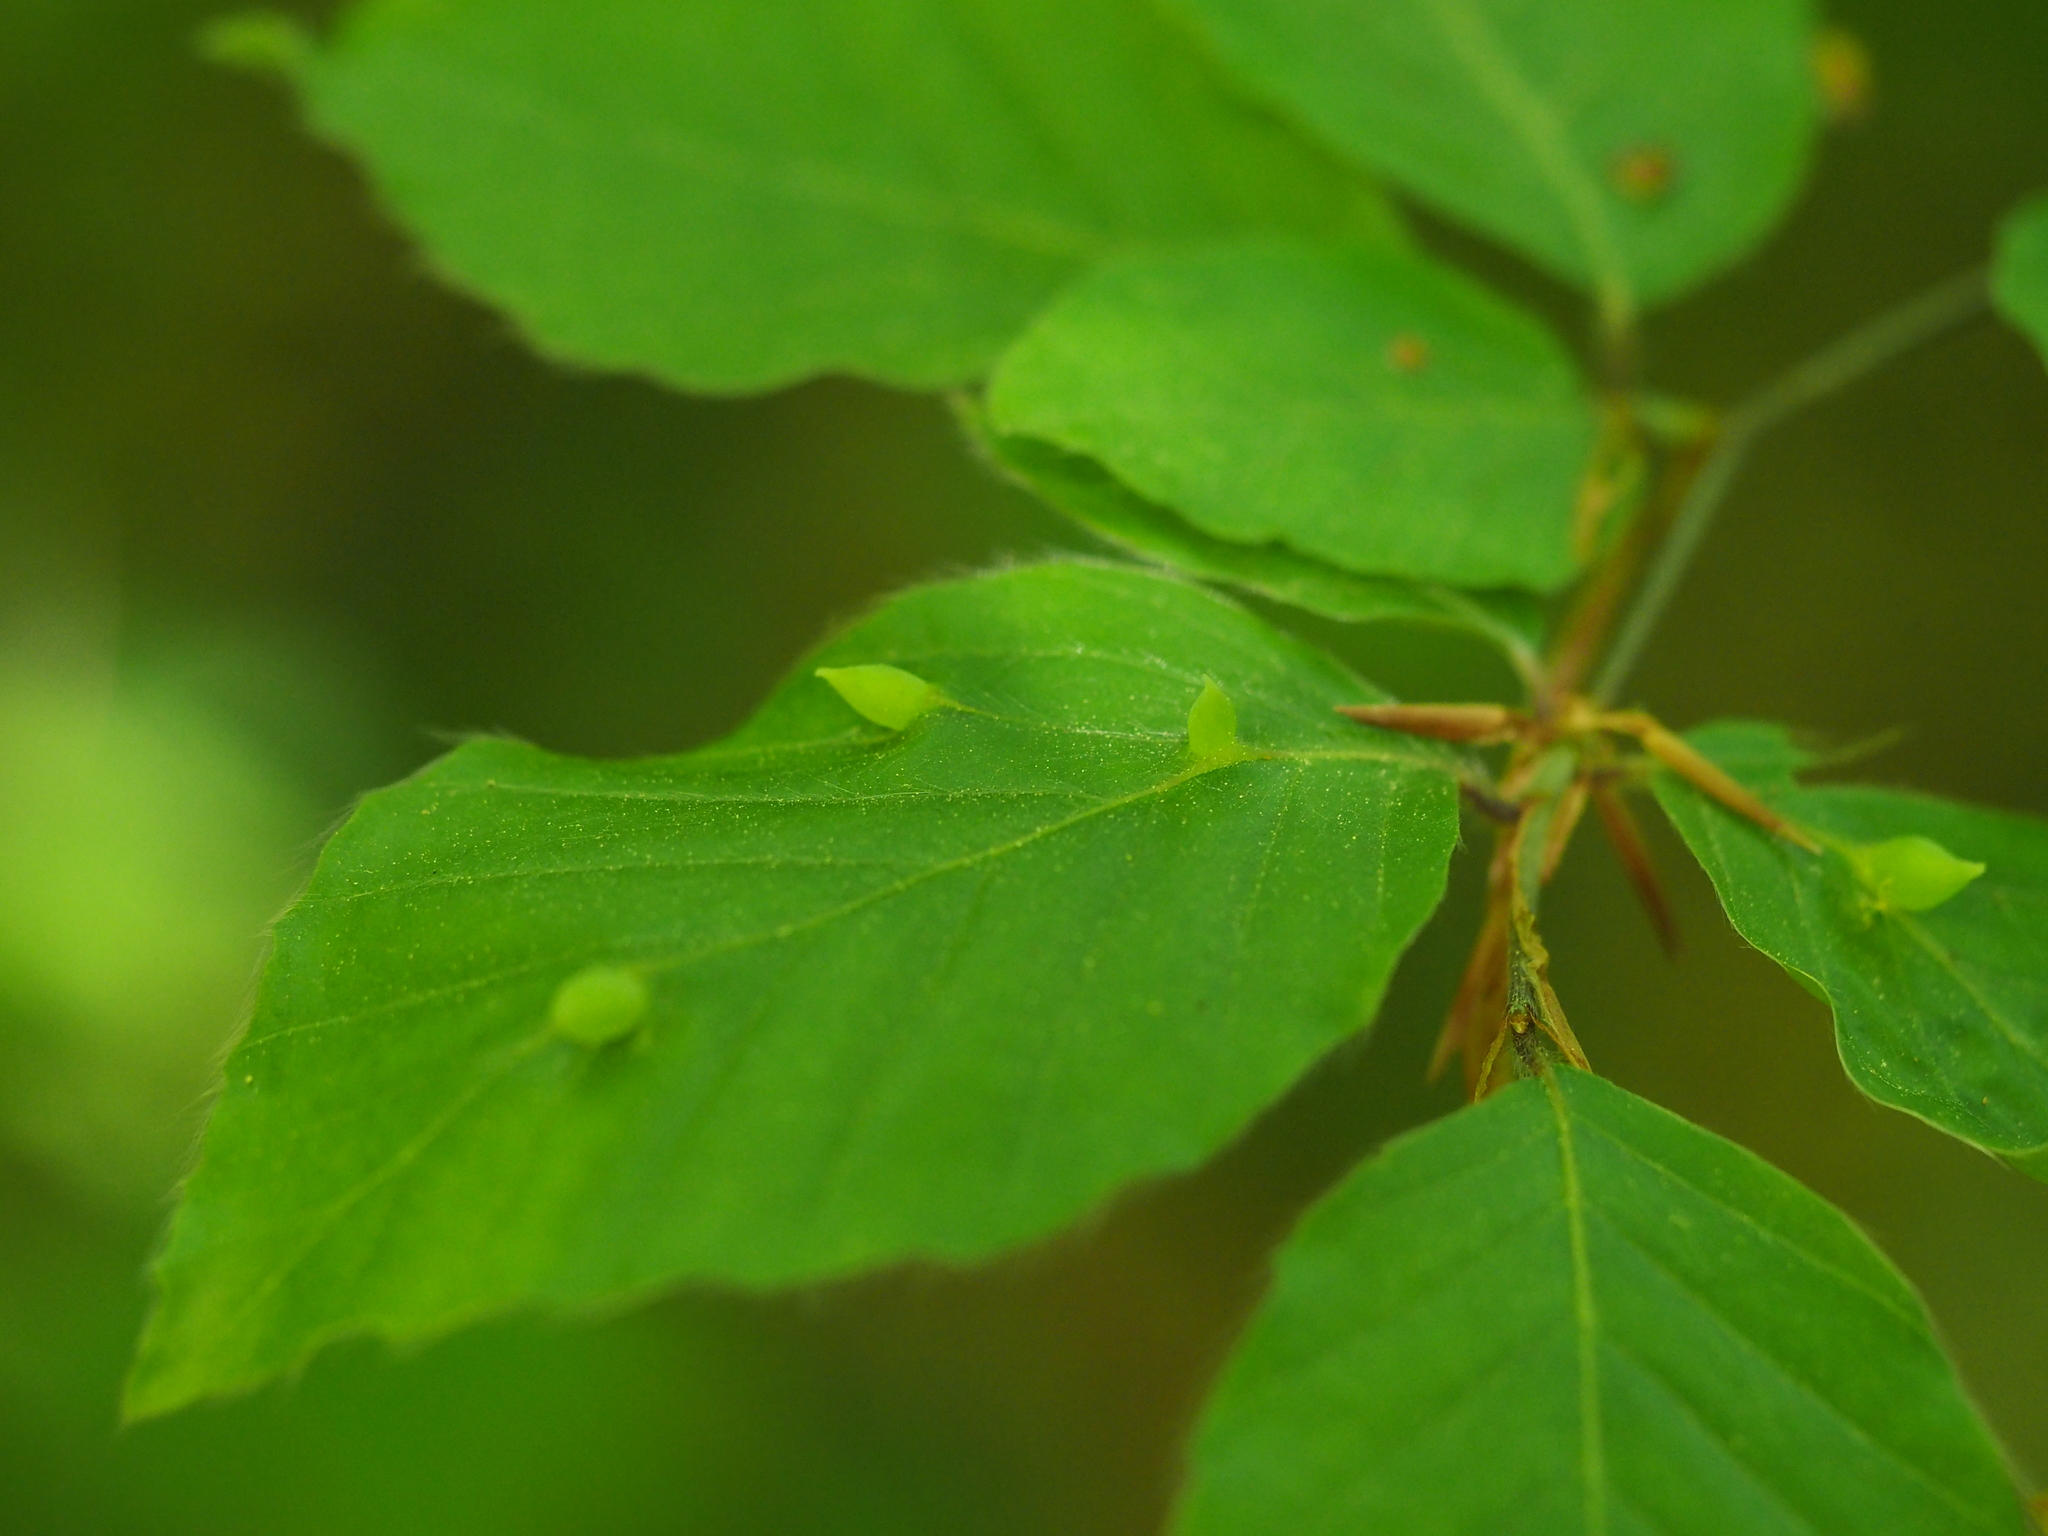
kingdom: Animalia
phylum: Arthropoda
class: Insecta
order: Diptera
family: Cecidomyiidae
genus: Mikiola
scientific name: Mikiola fagi
